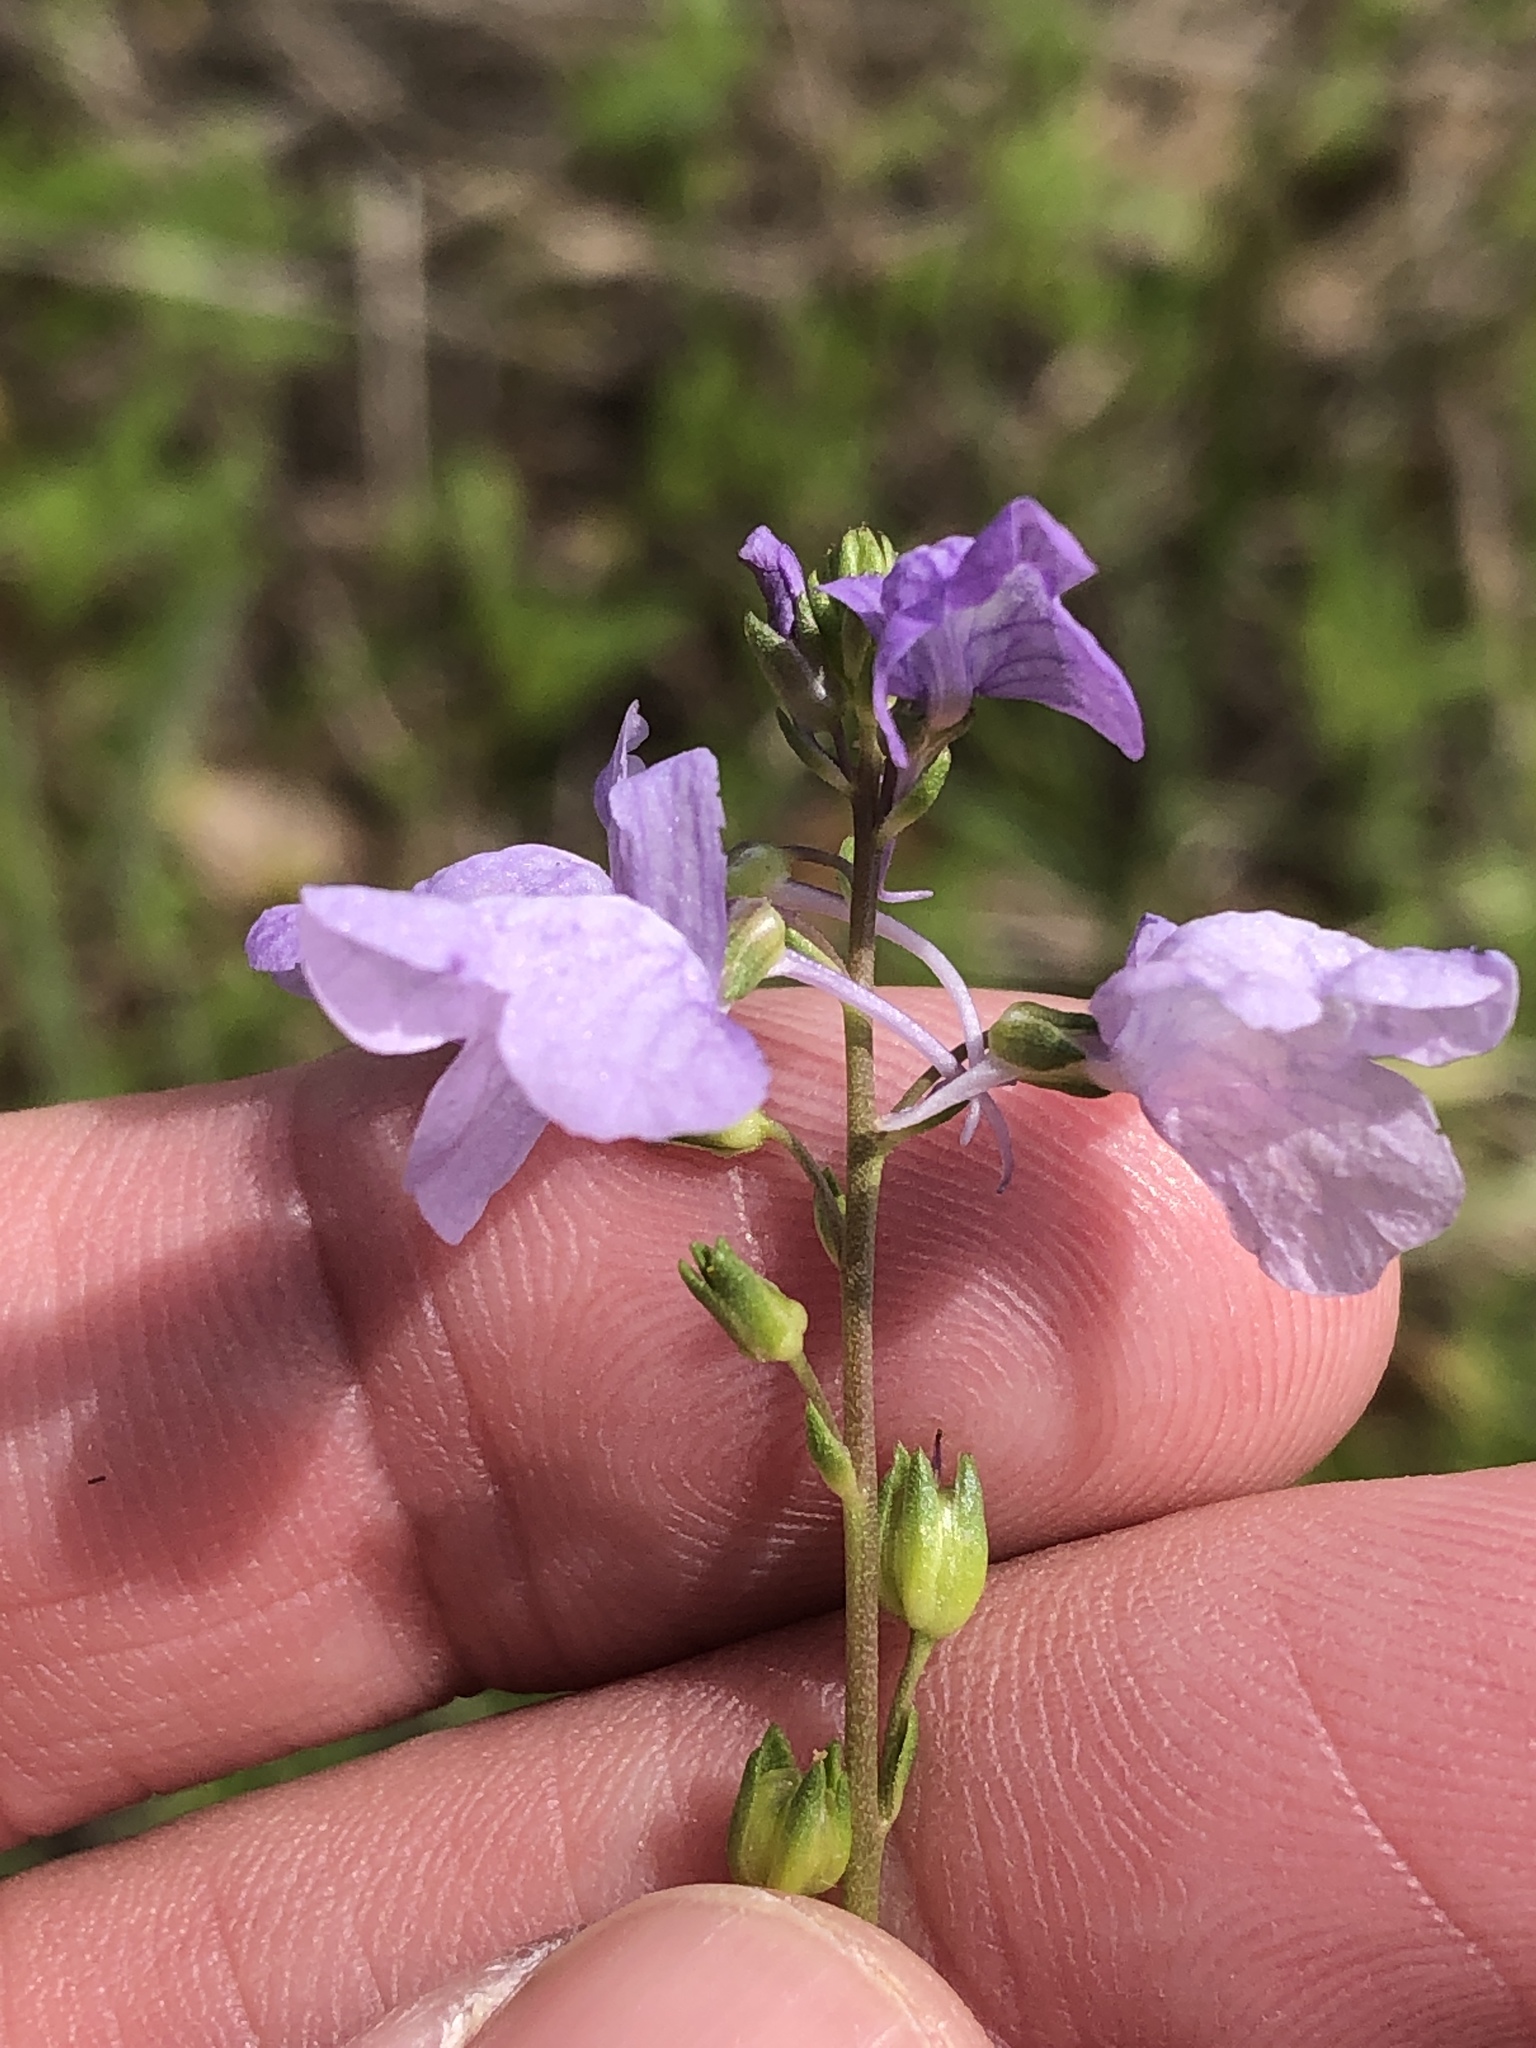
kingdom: Plantae
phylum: Tracheophyta
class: Magnoliopsida
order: Lamiales
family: Plantaginaceae
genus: Nuttallanthus
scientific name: Nuttallanthus texanus
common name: Texas toadflax
